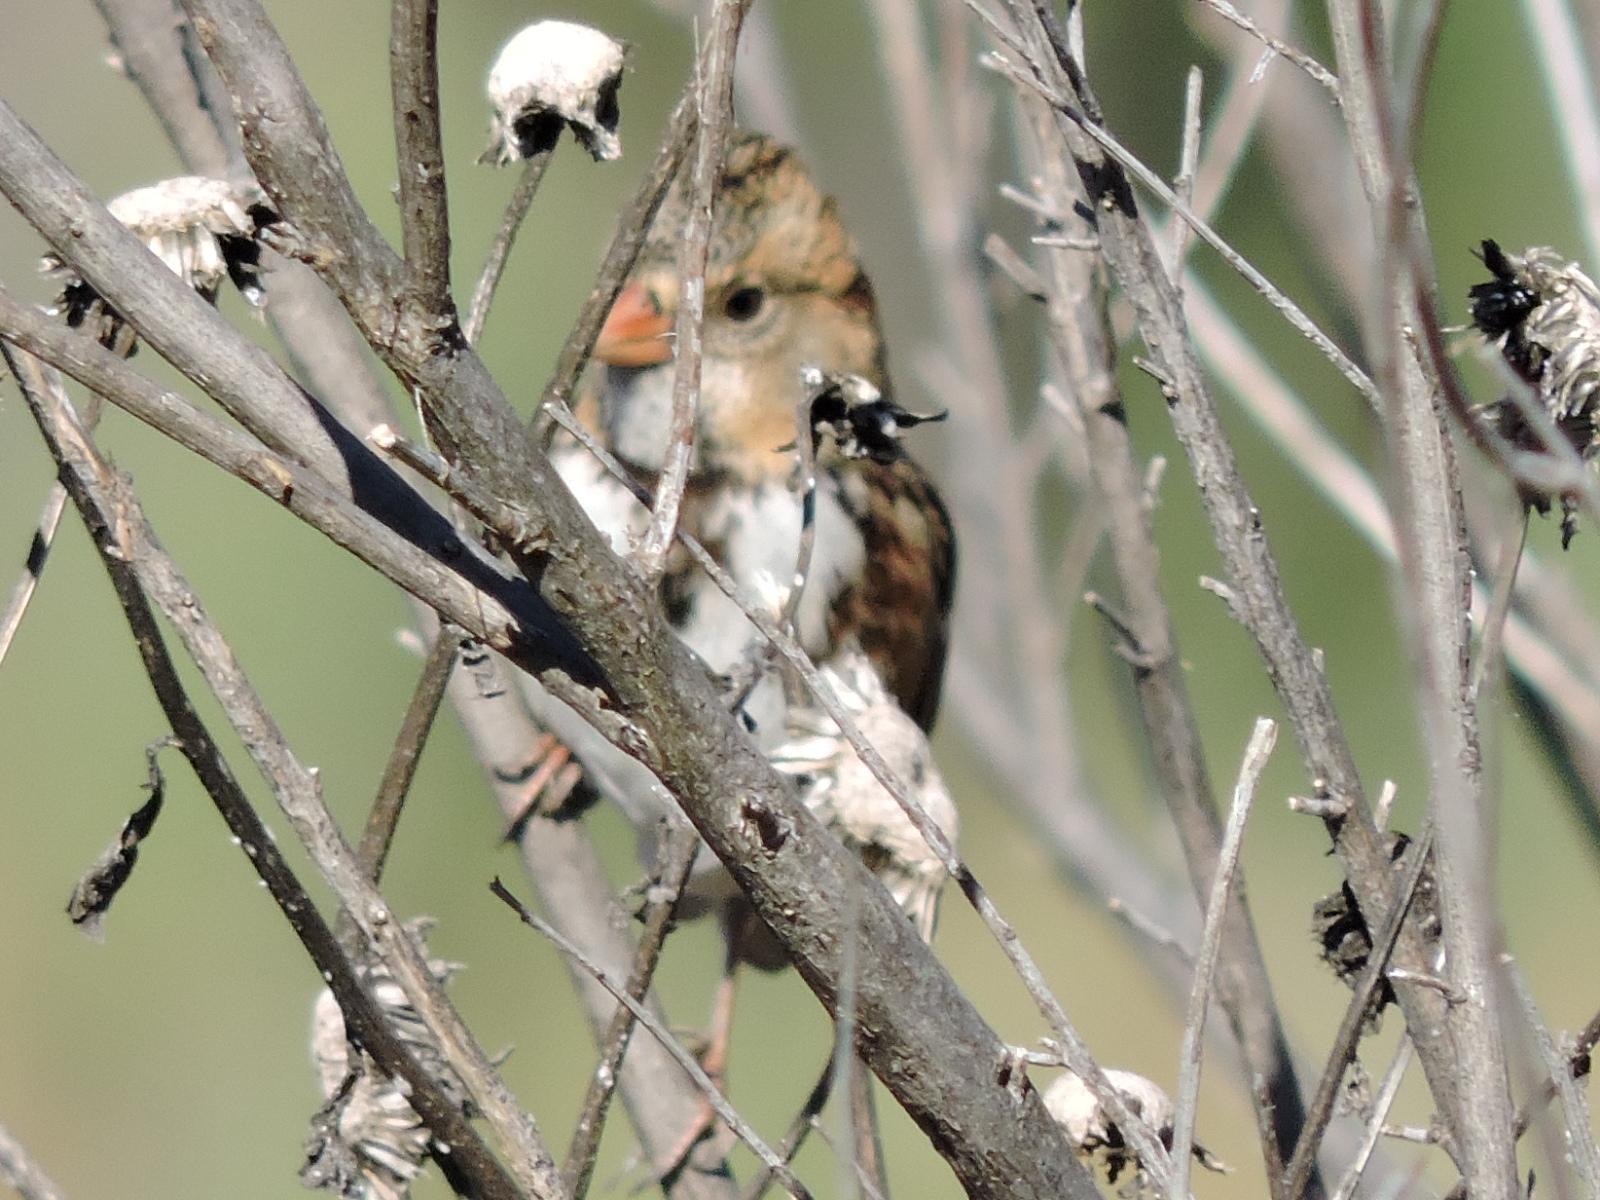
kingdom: Animalia
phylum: Chordata
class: Aves
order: Passeriformes
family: Passerellidae
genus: Zonotrichia
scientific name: Zonotrichia querula
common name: Harris's sparrow
